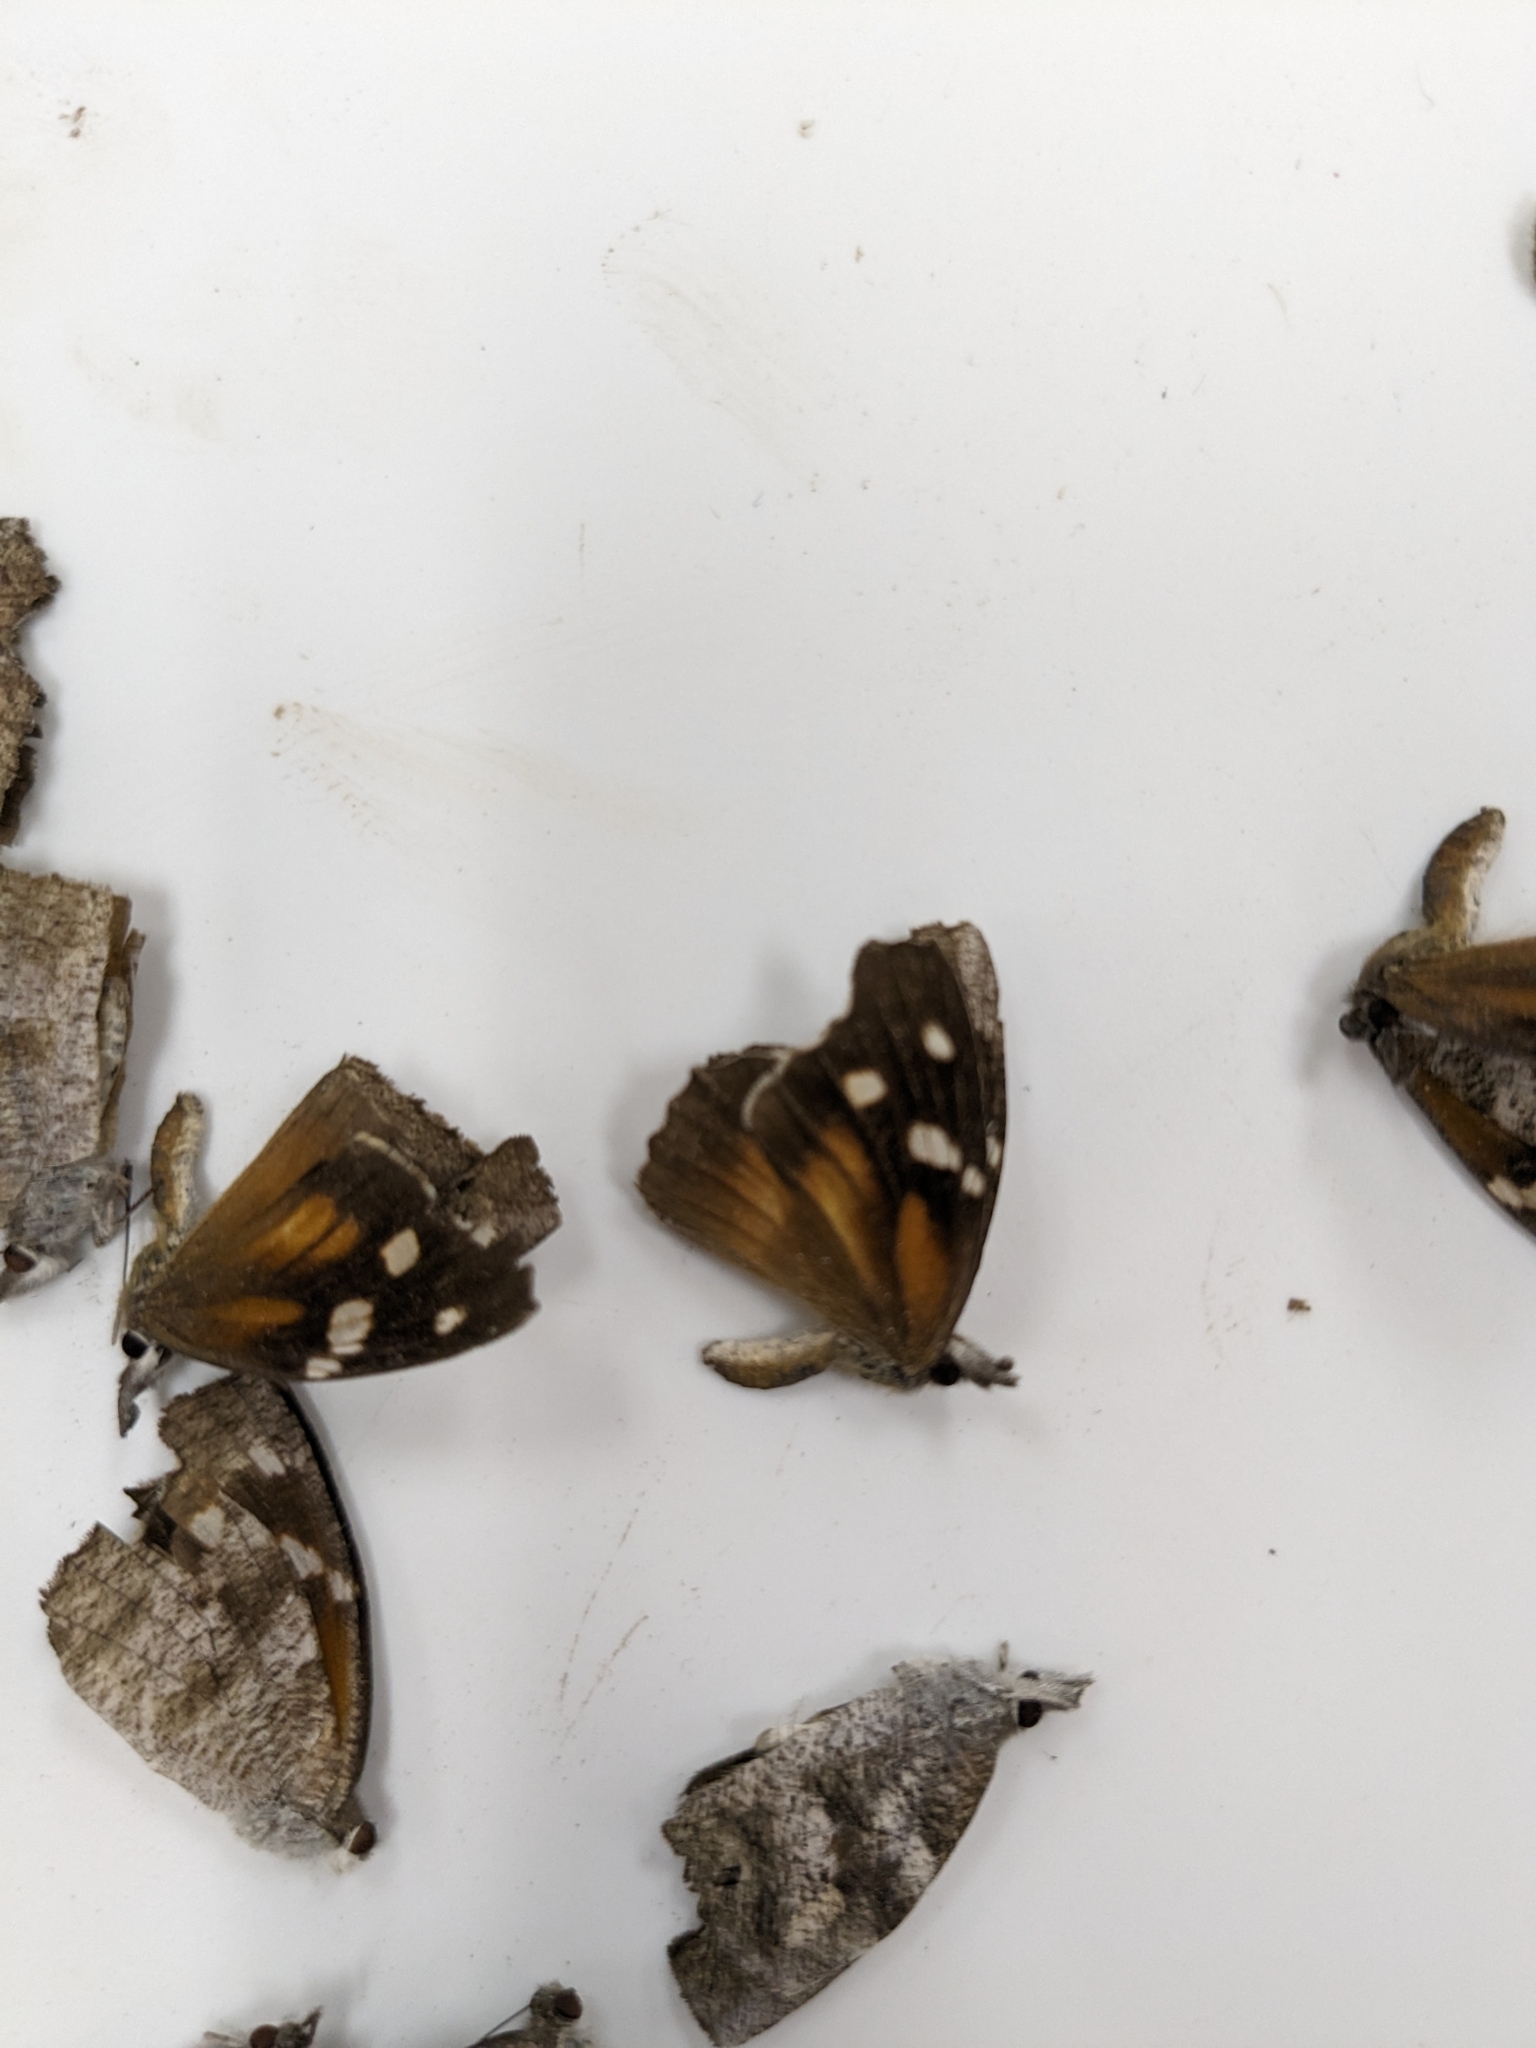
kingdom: Animalia
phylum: Arthropoda
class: Insecta
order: Lepidoptera
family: Nymphalidae
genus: Libytheana
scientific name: Libytheana carinenta
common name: American snout
